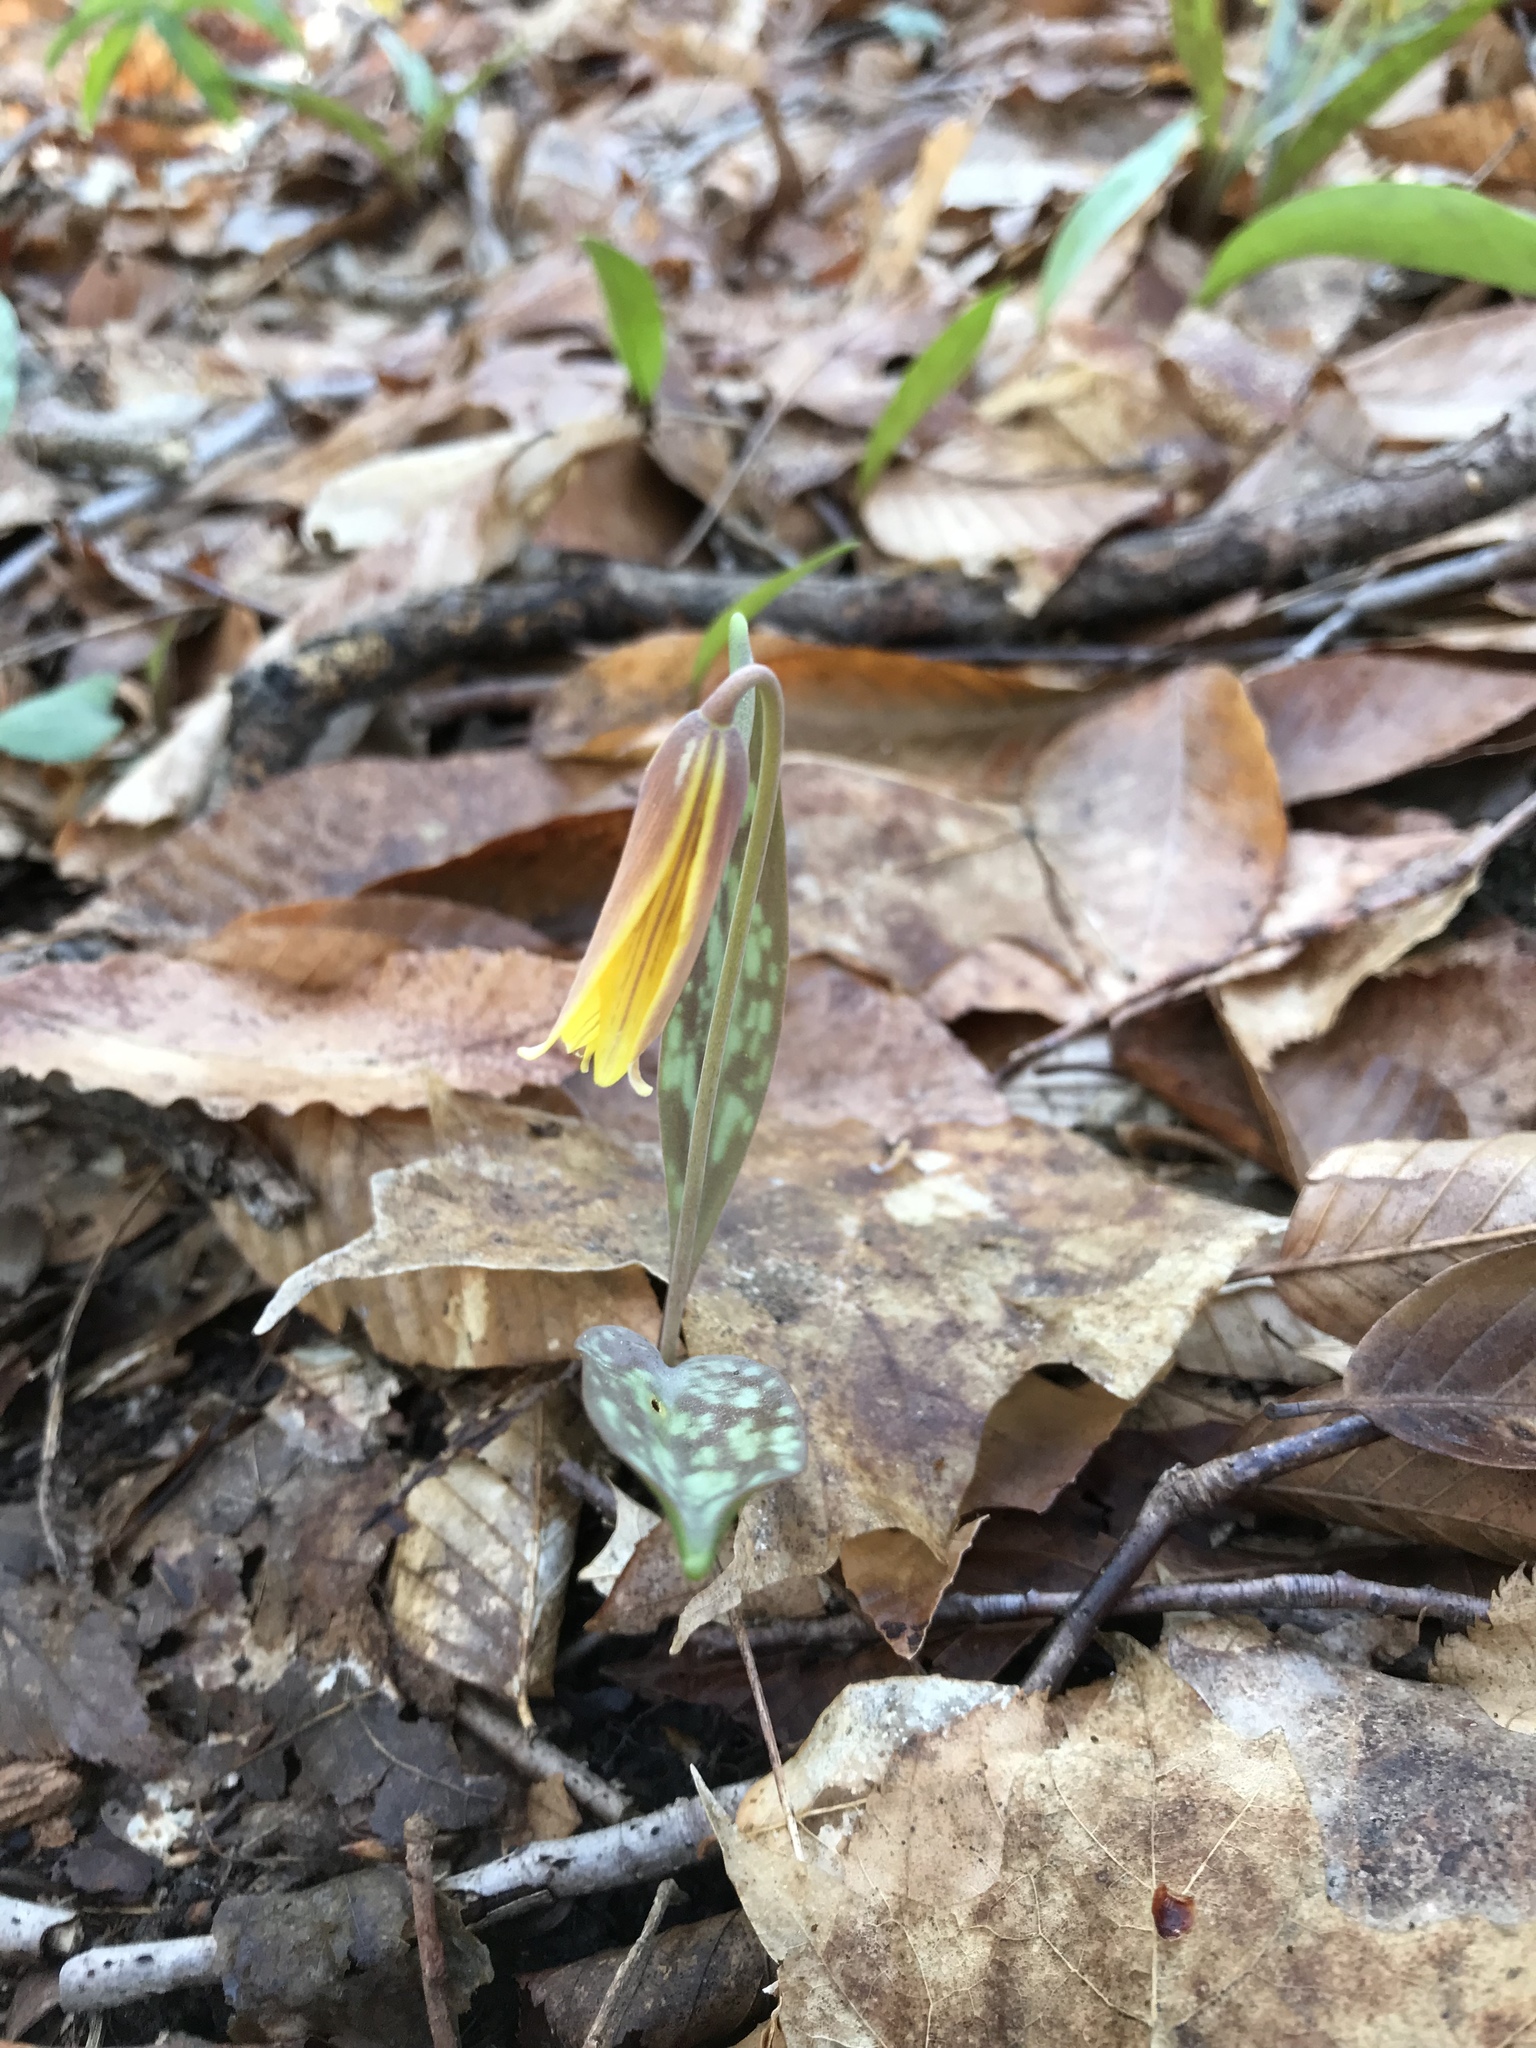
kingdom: Plantae
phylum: Tracheophyta
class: Liliopsida
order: Liliales
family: Liliaceae
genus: Erythronium
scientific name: Erythronium americanum
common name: Yellow adder's-tongue
